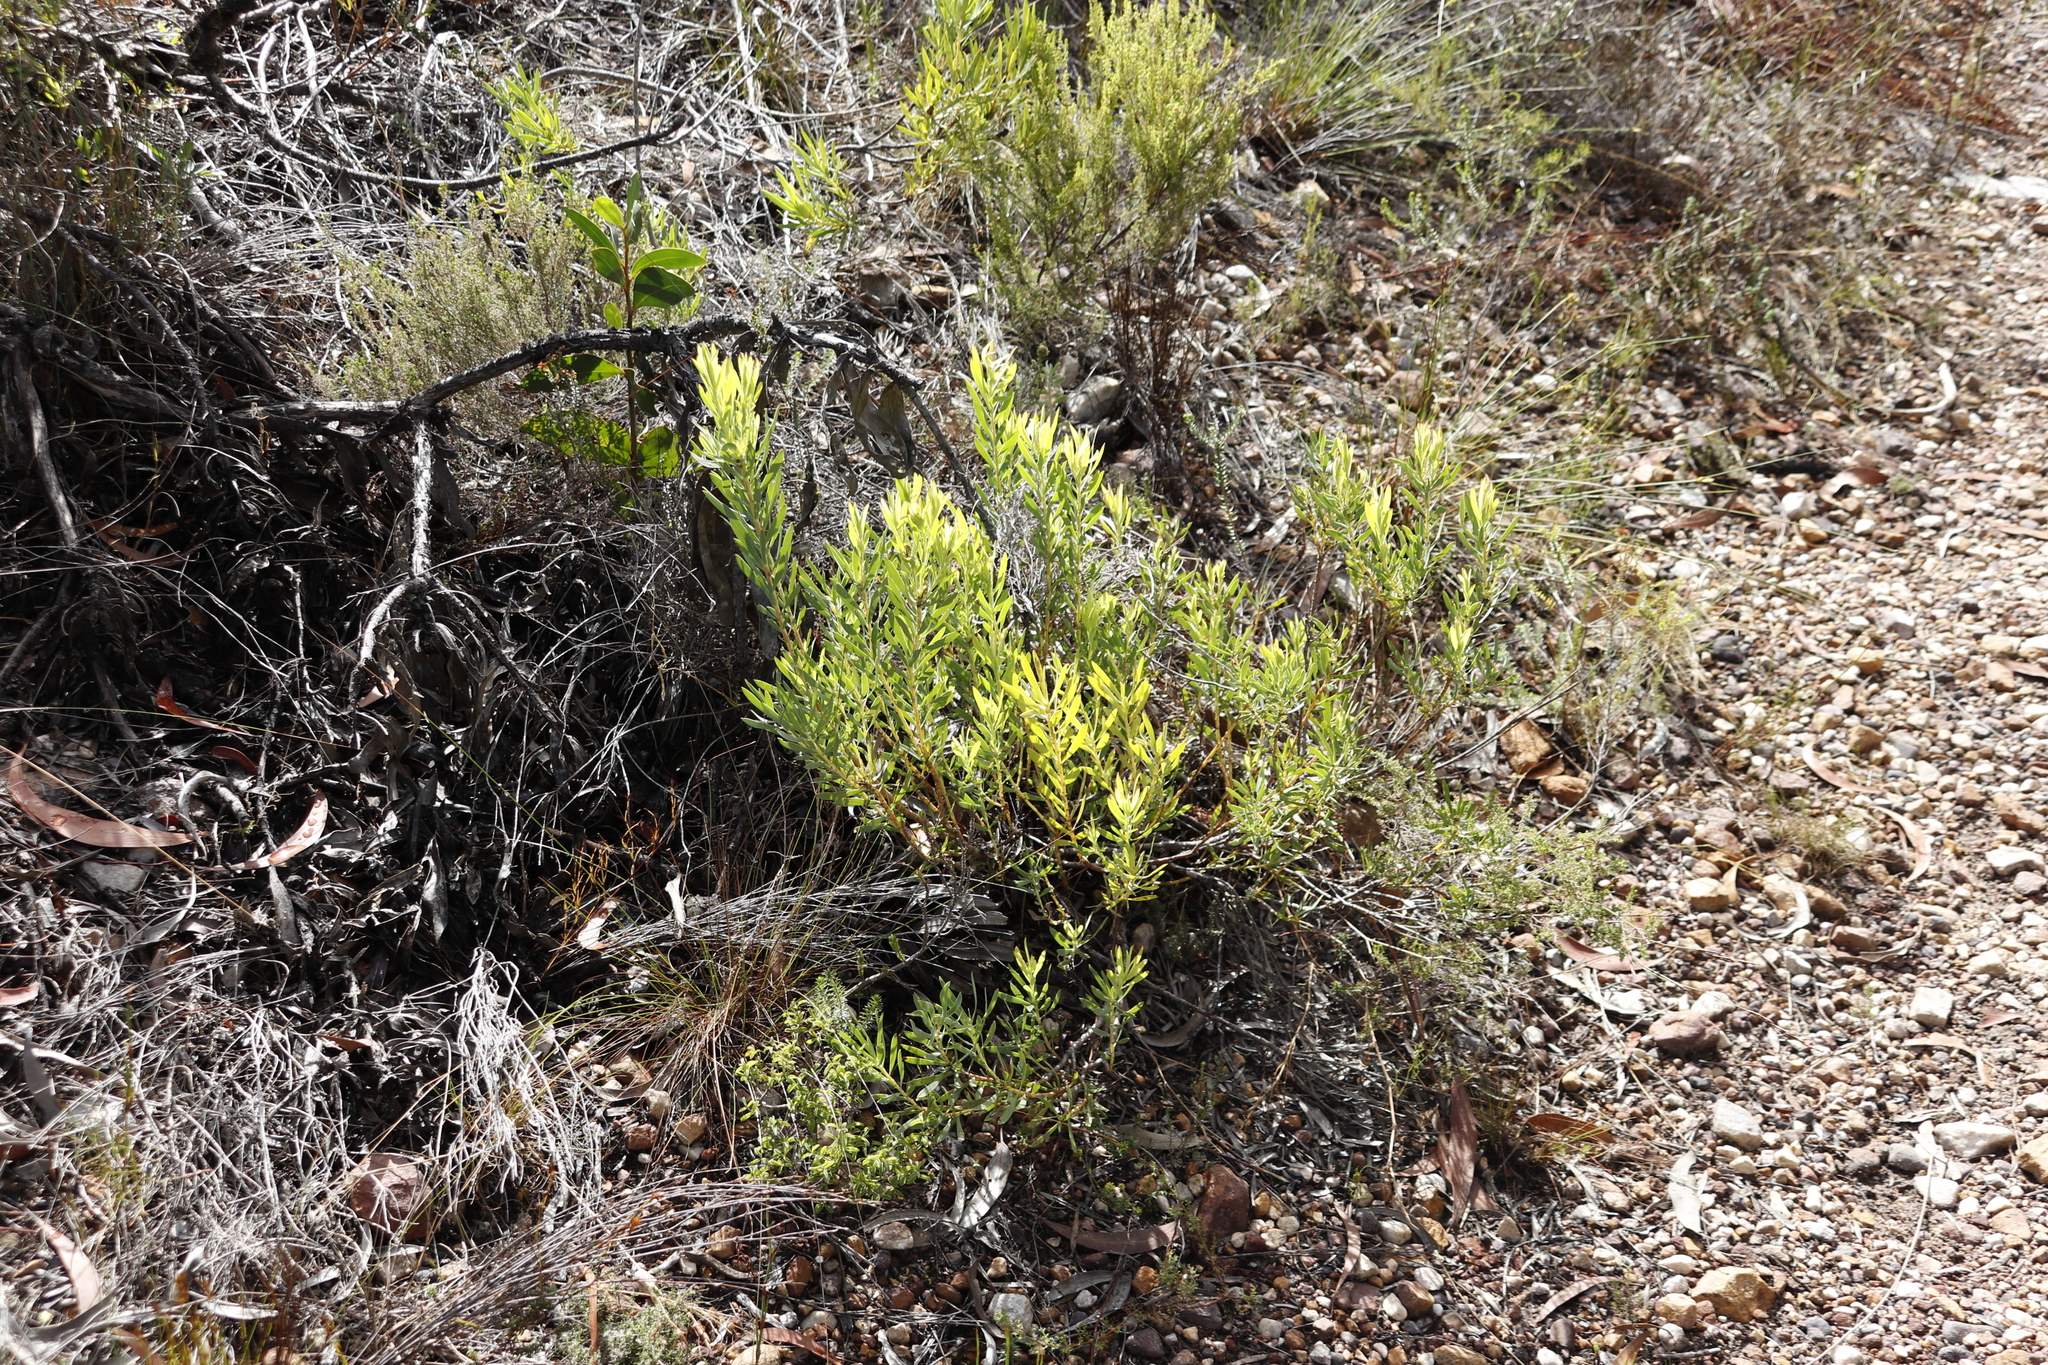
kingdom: Plantae
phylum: Tracheophyta
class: Magnoliopsida
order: Proteales
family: Proteaceae
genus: Leucadendron
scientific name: Leucadendron salignum
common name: Common sunshine conebush
